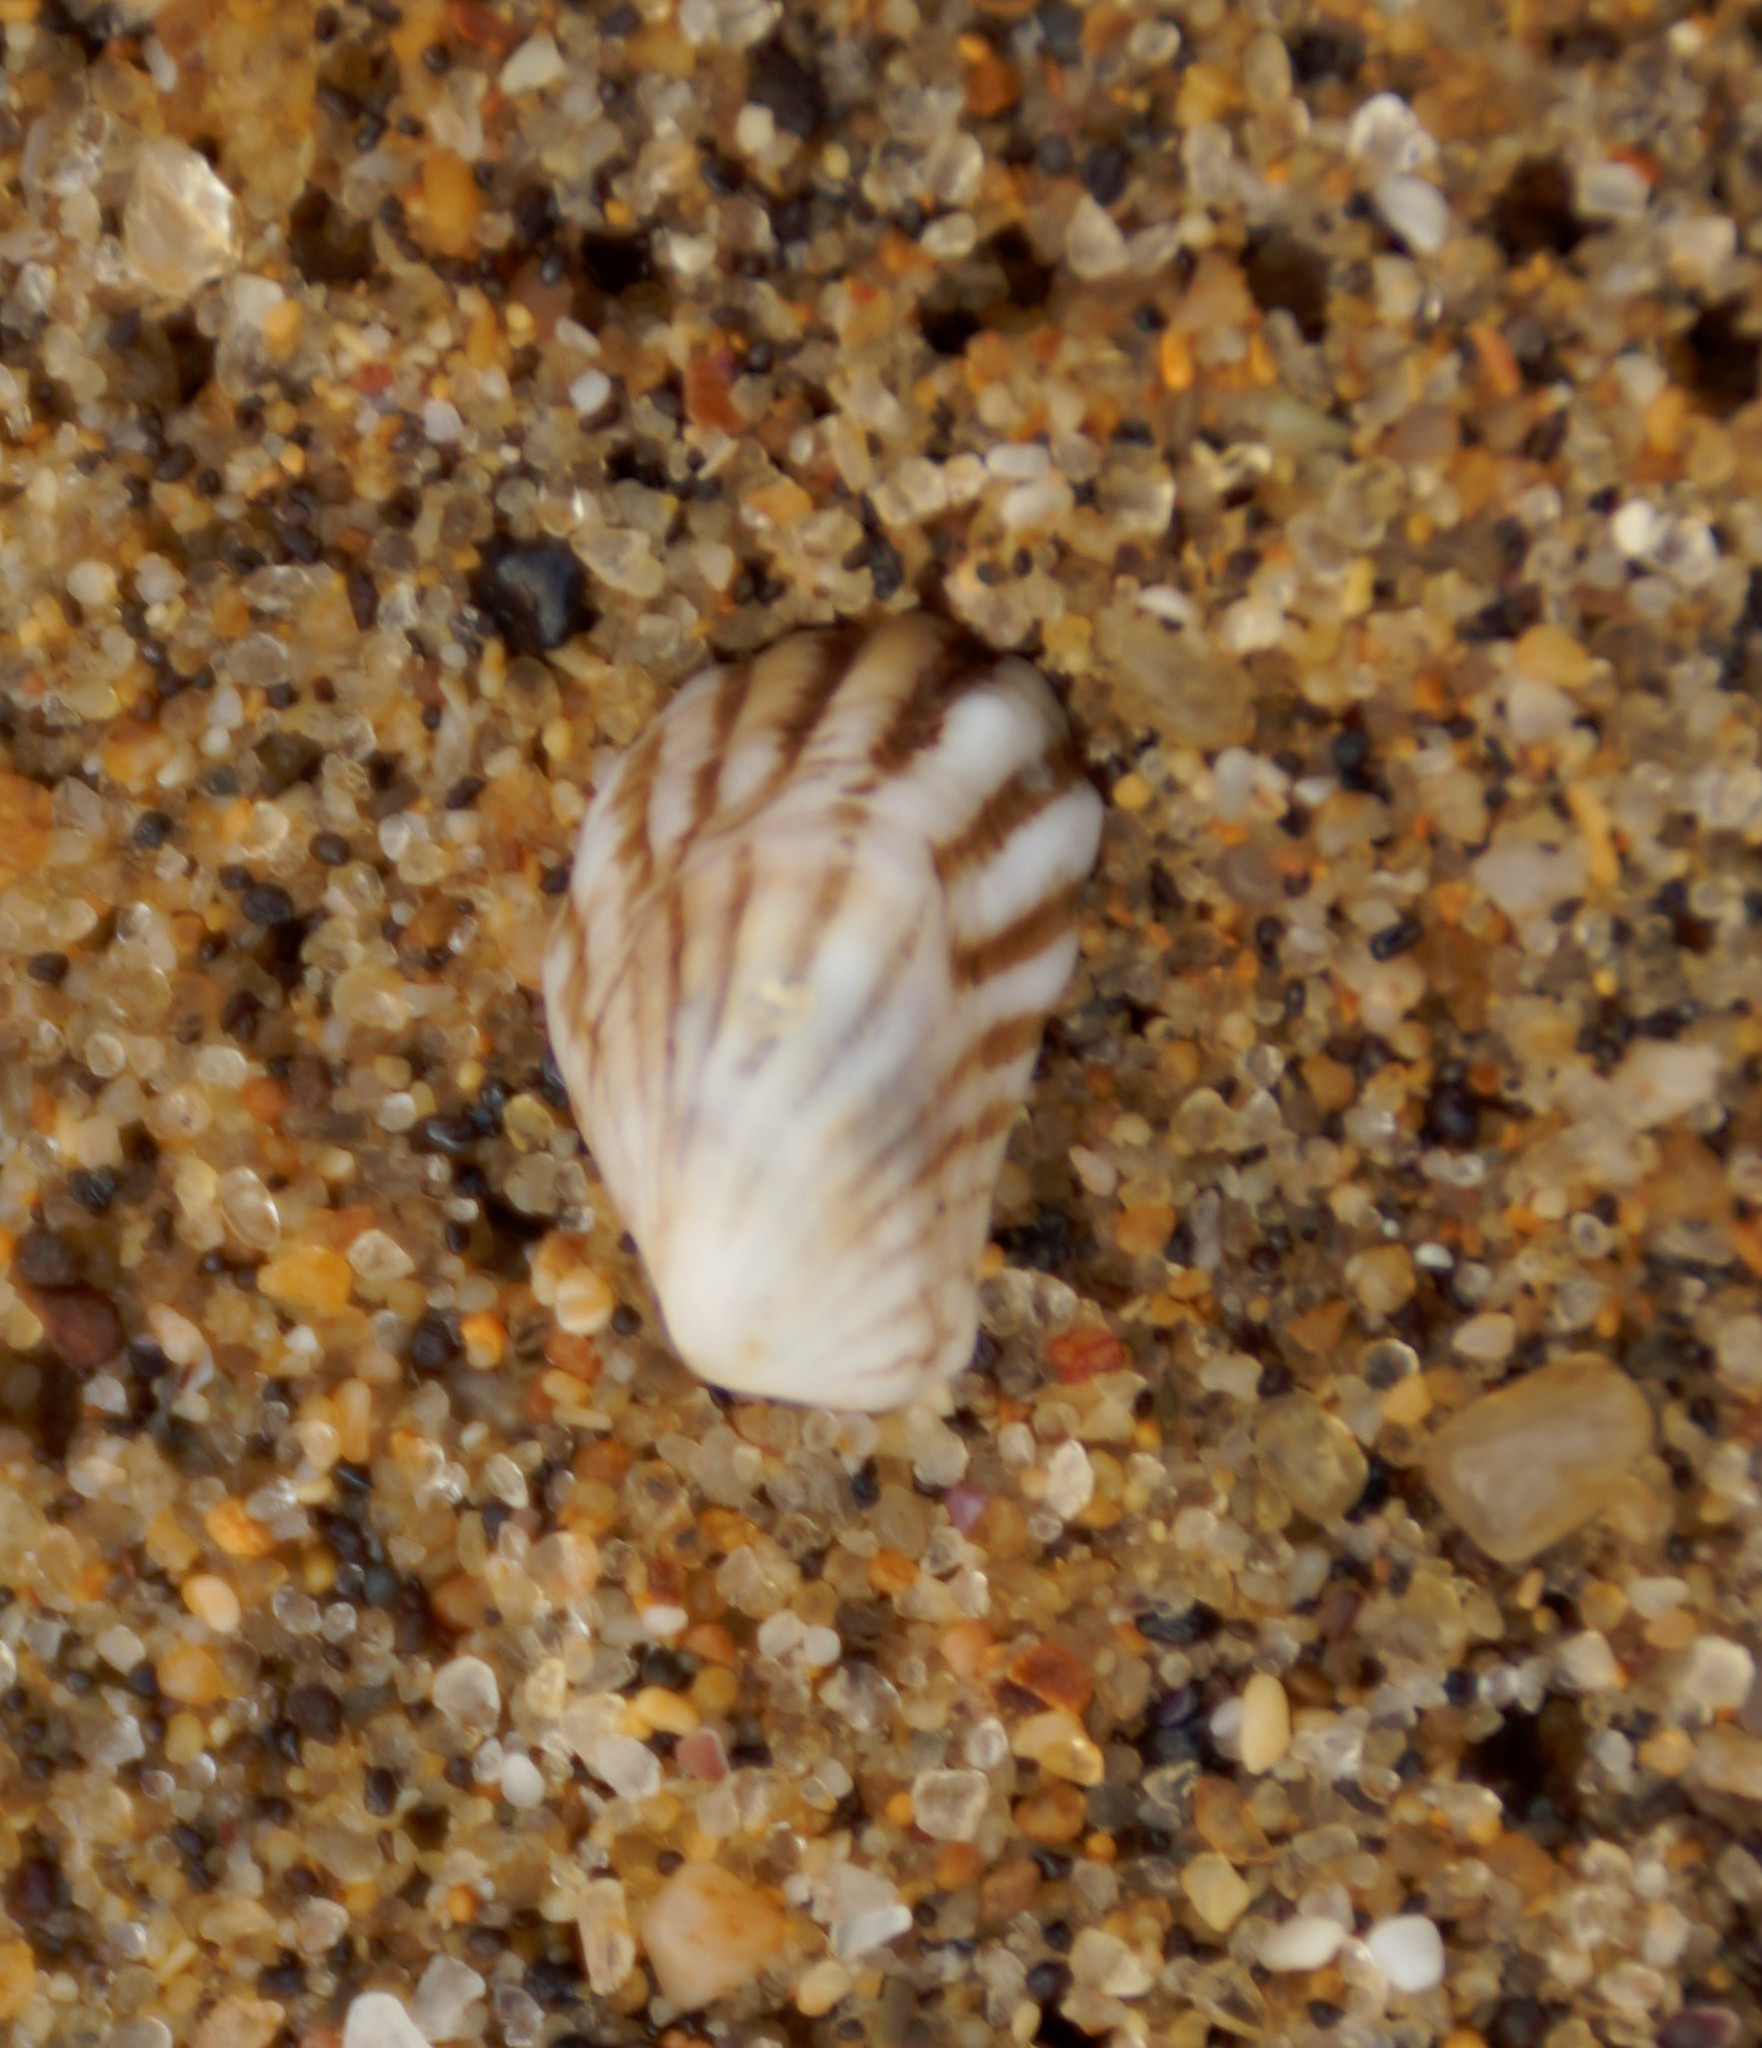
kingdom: Animalia
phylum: Mollusca
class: Bivalvia
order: Carditida
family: Carditidae
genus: Cardita
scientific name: Cardita aviculina
